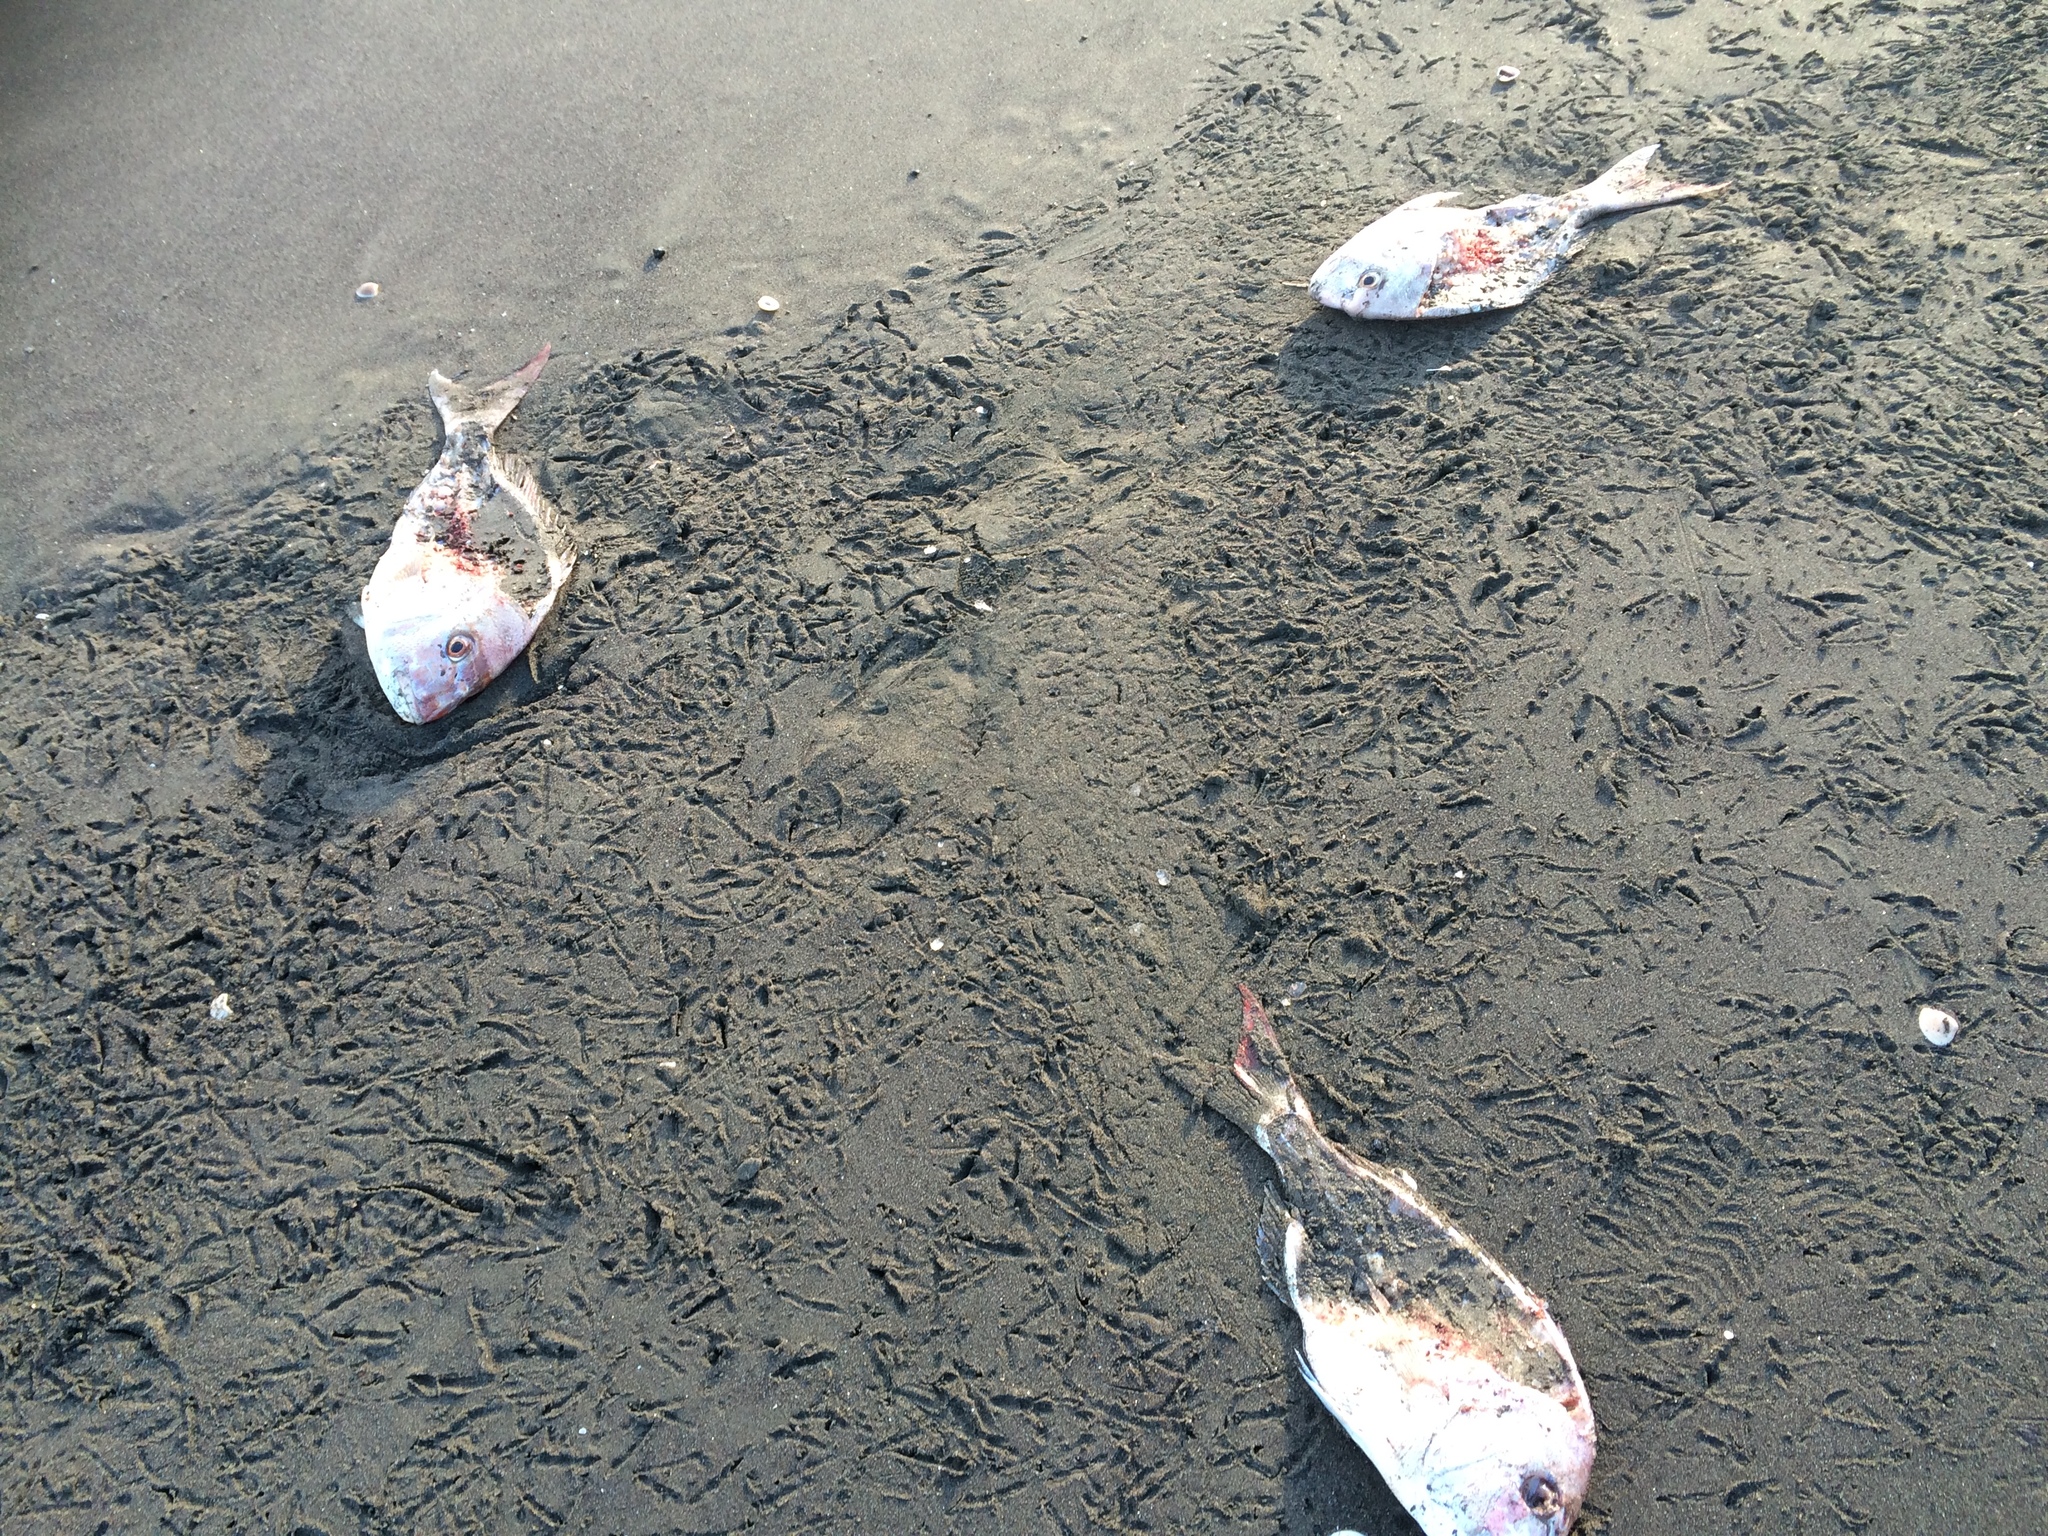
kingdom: Animalia
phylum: Chordata
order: Perciformes
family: Sparidae
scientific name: Sparidae
